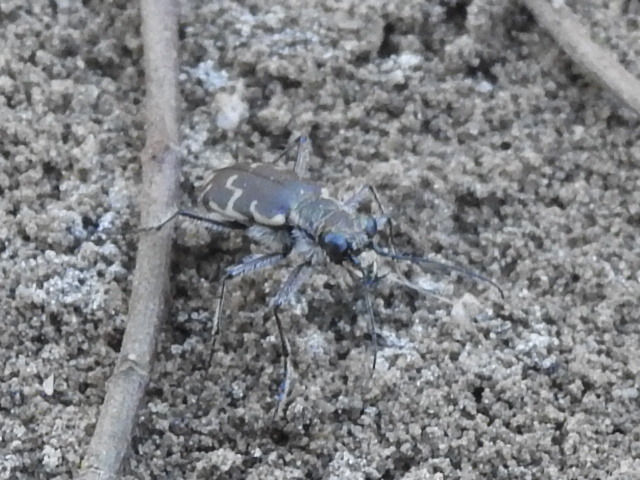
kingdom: Animalia
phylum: Arthropoda
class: Insecta
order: Coleoptera
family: Carabidae
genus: Cicindela
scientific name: Cicindela repanda
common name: Bronzed tiger beetle
